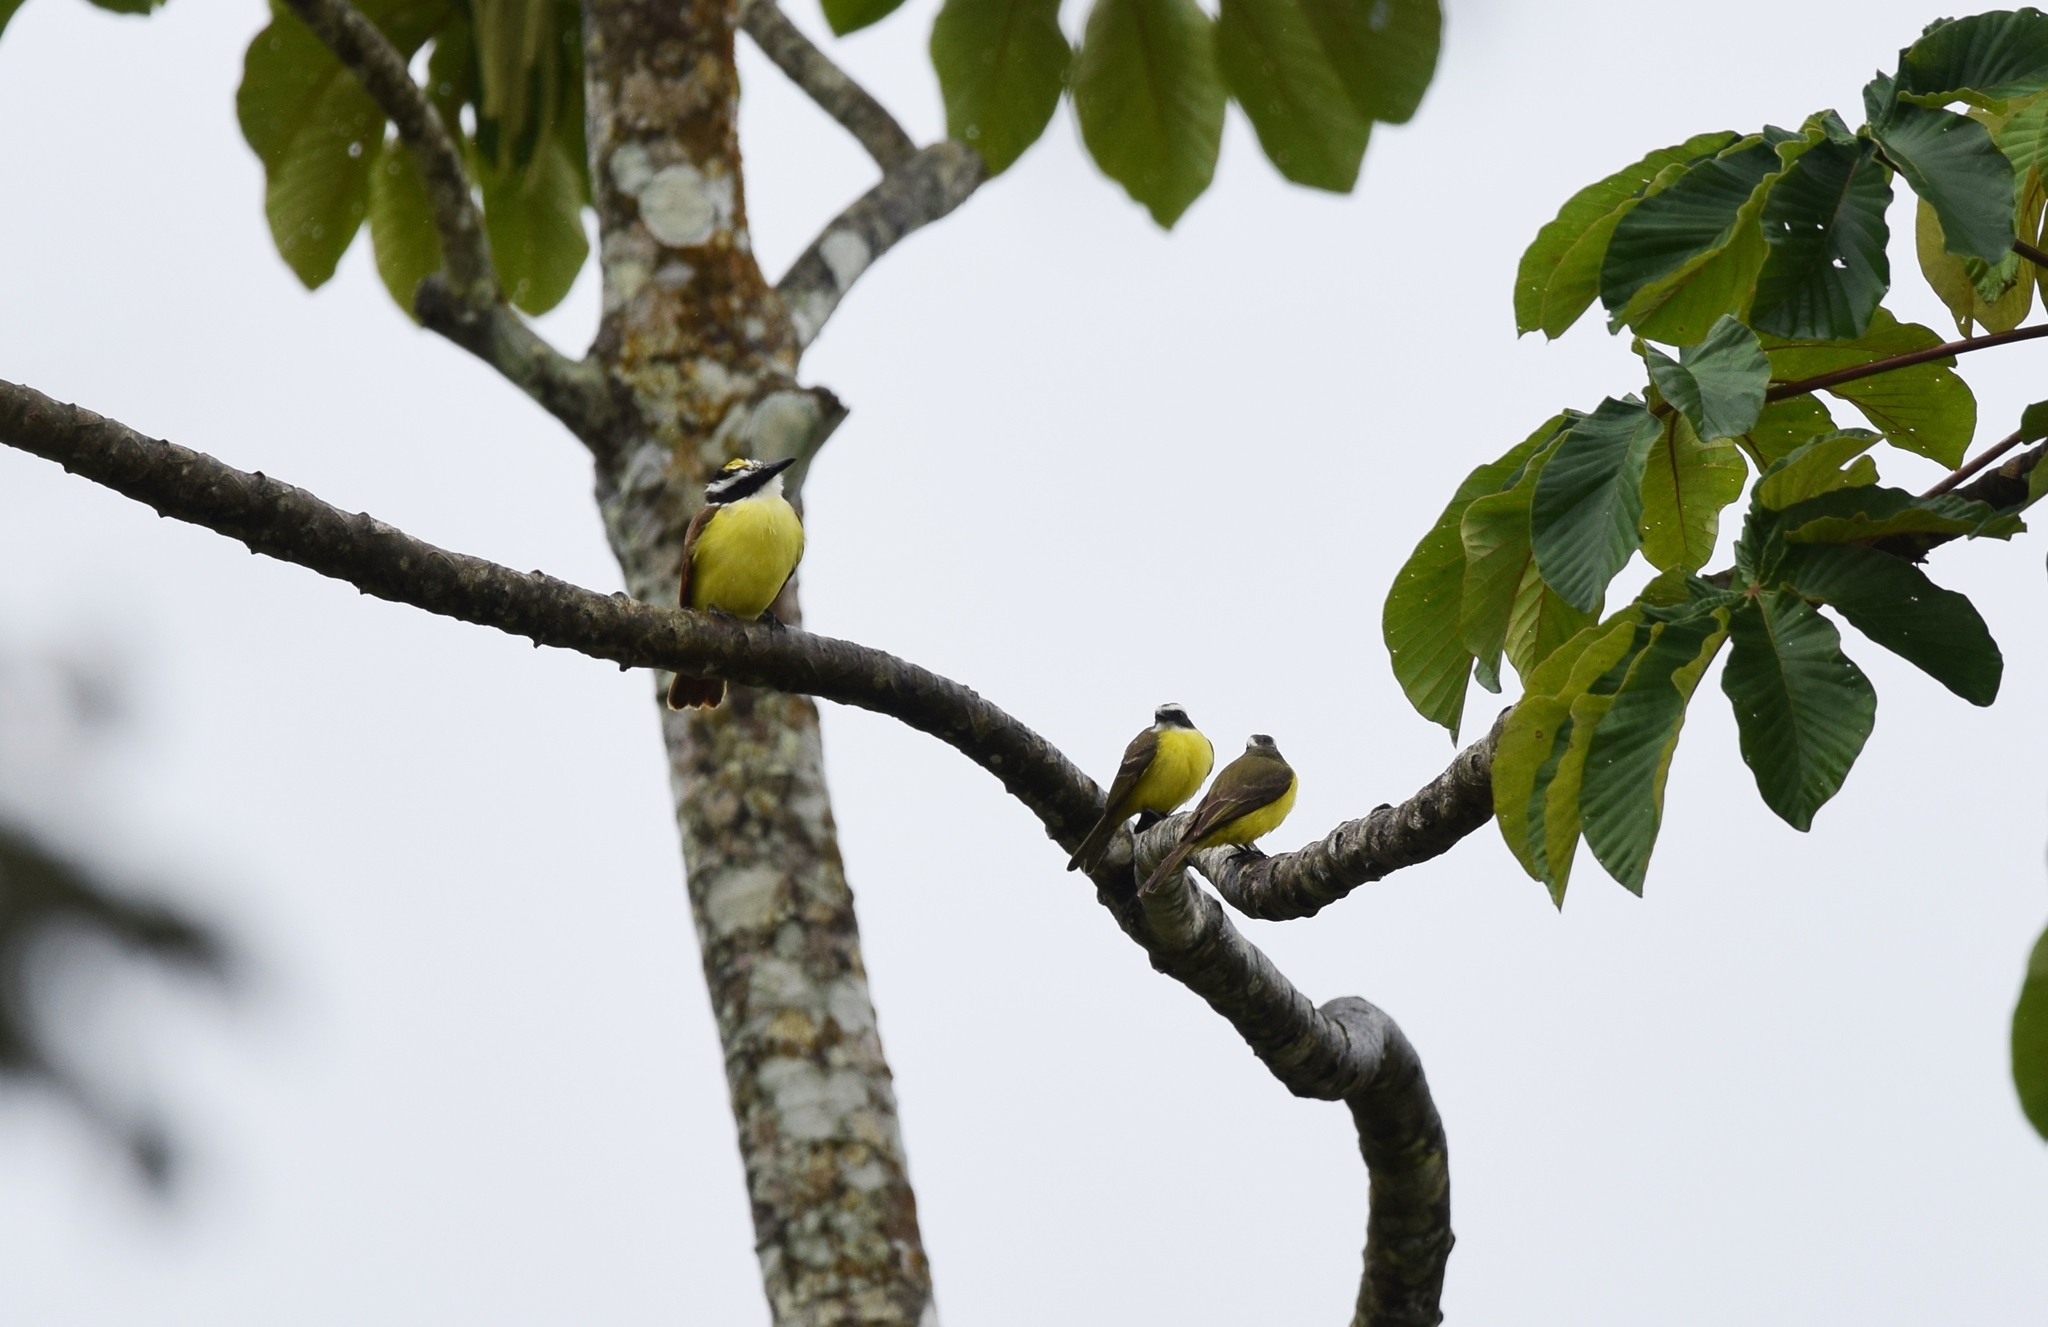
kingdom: Animalia
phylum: Chordata
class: Aves
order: Passeriformes
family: Tyrannidae
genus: Pitangus
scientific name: Pitangus sulphuratus
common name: Great kiskadee
